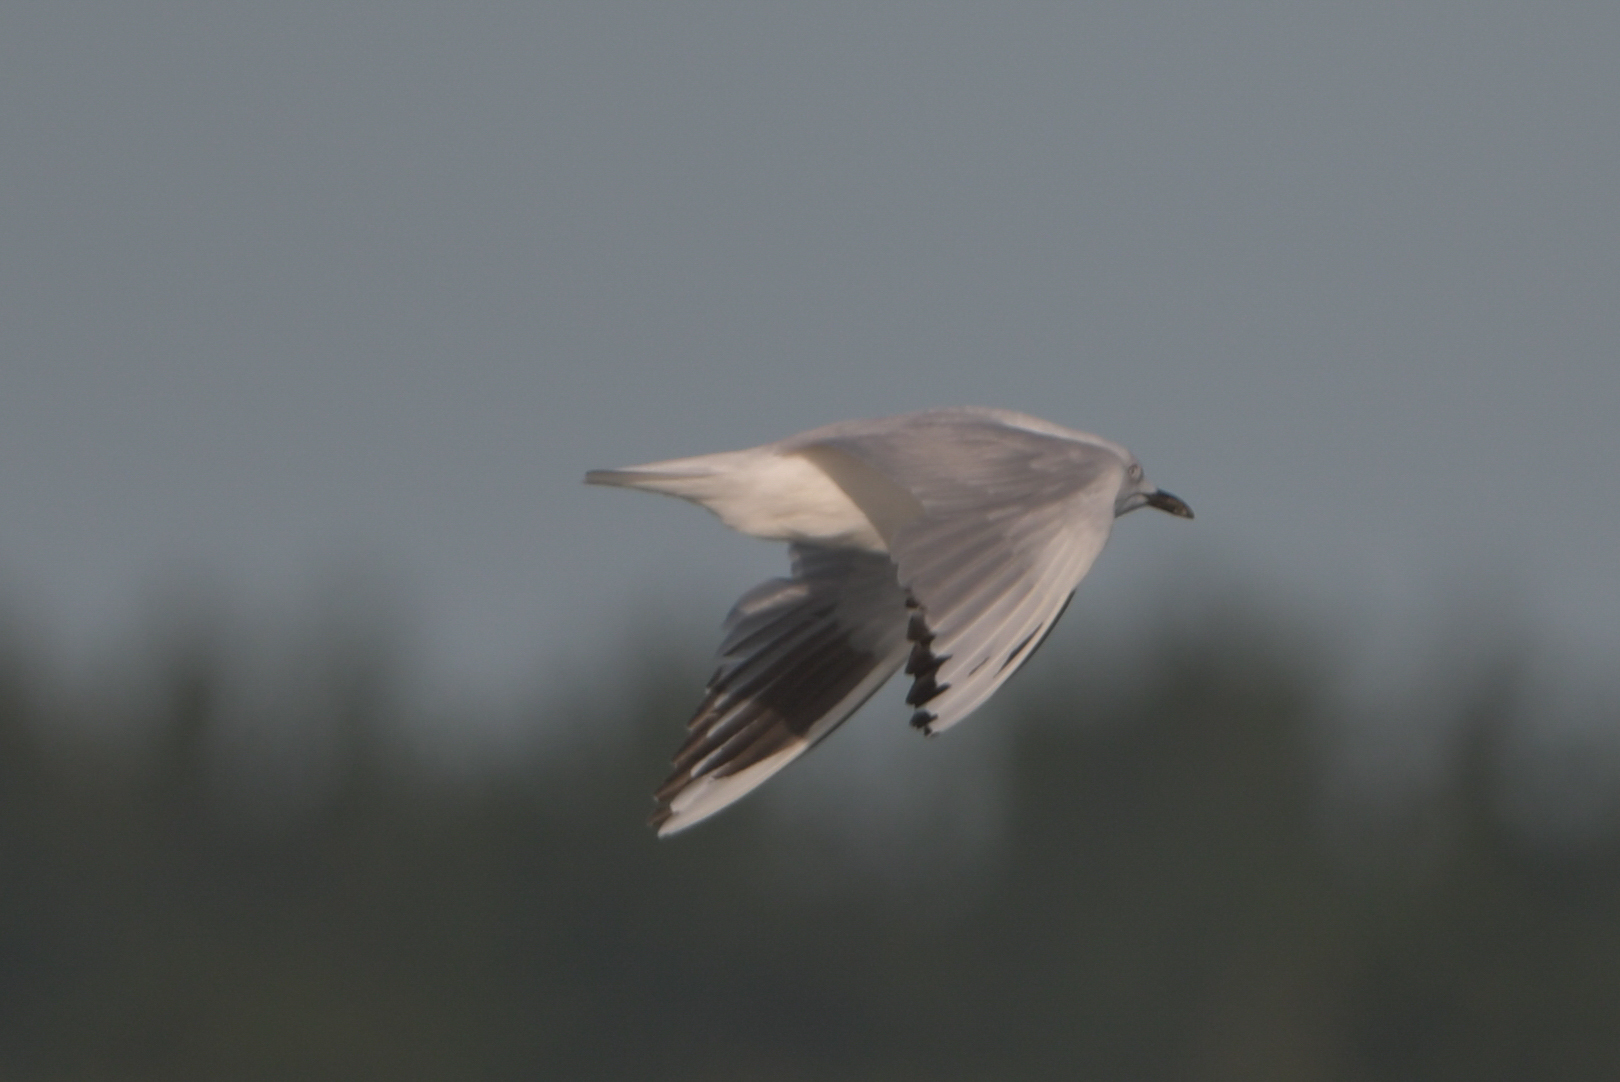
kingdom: Animalia
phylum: Chordata
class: Aves
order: Charadriiformes
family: Laridae
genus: Chroicocephalus
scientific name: Chroicocephalus bulleri
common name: Black-billed gull
